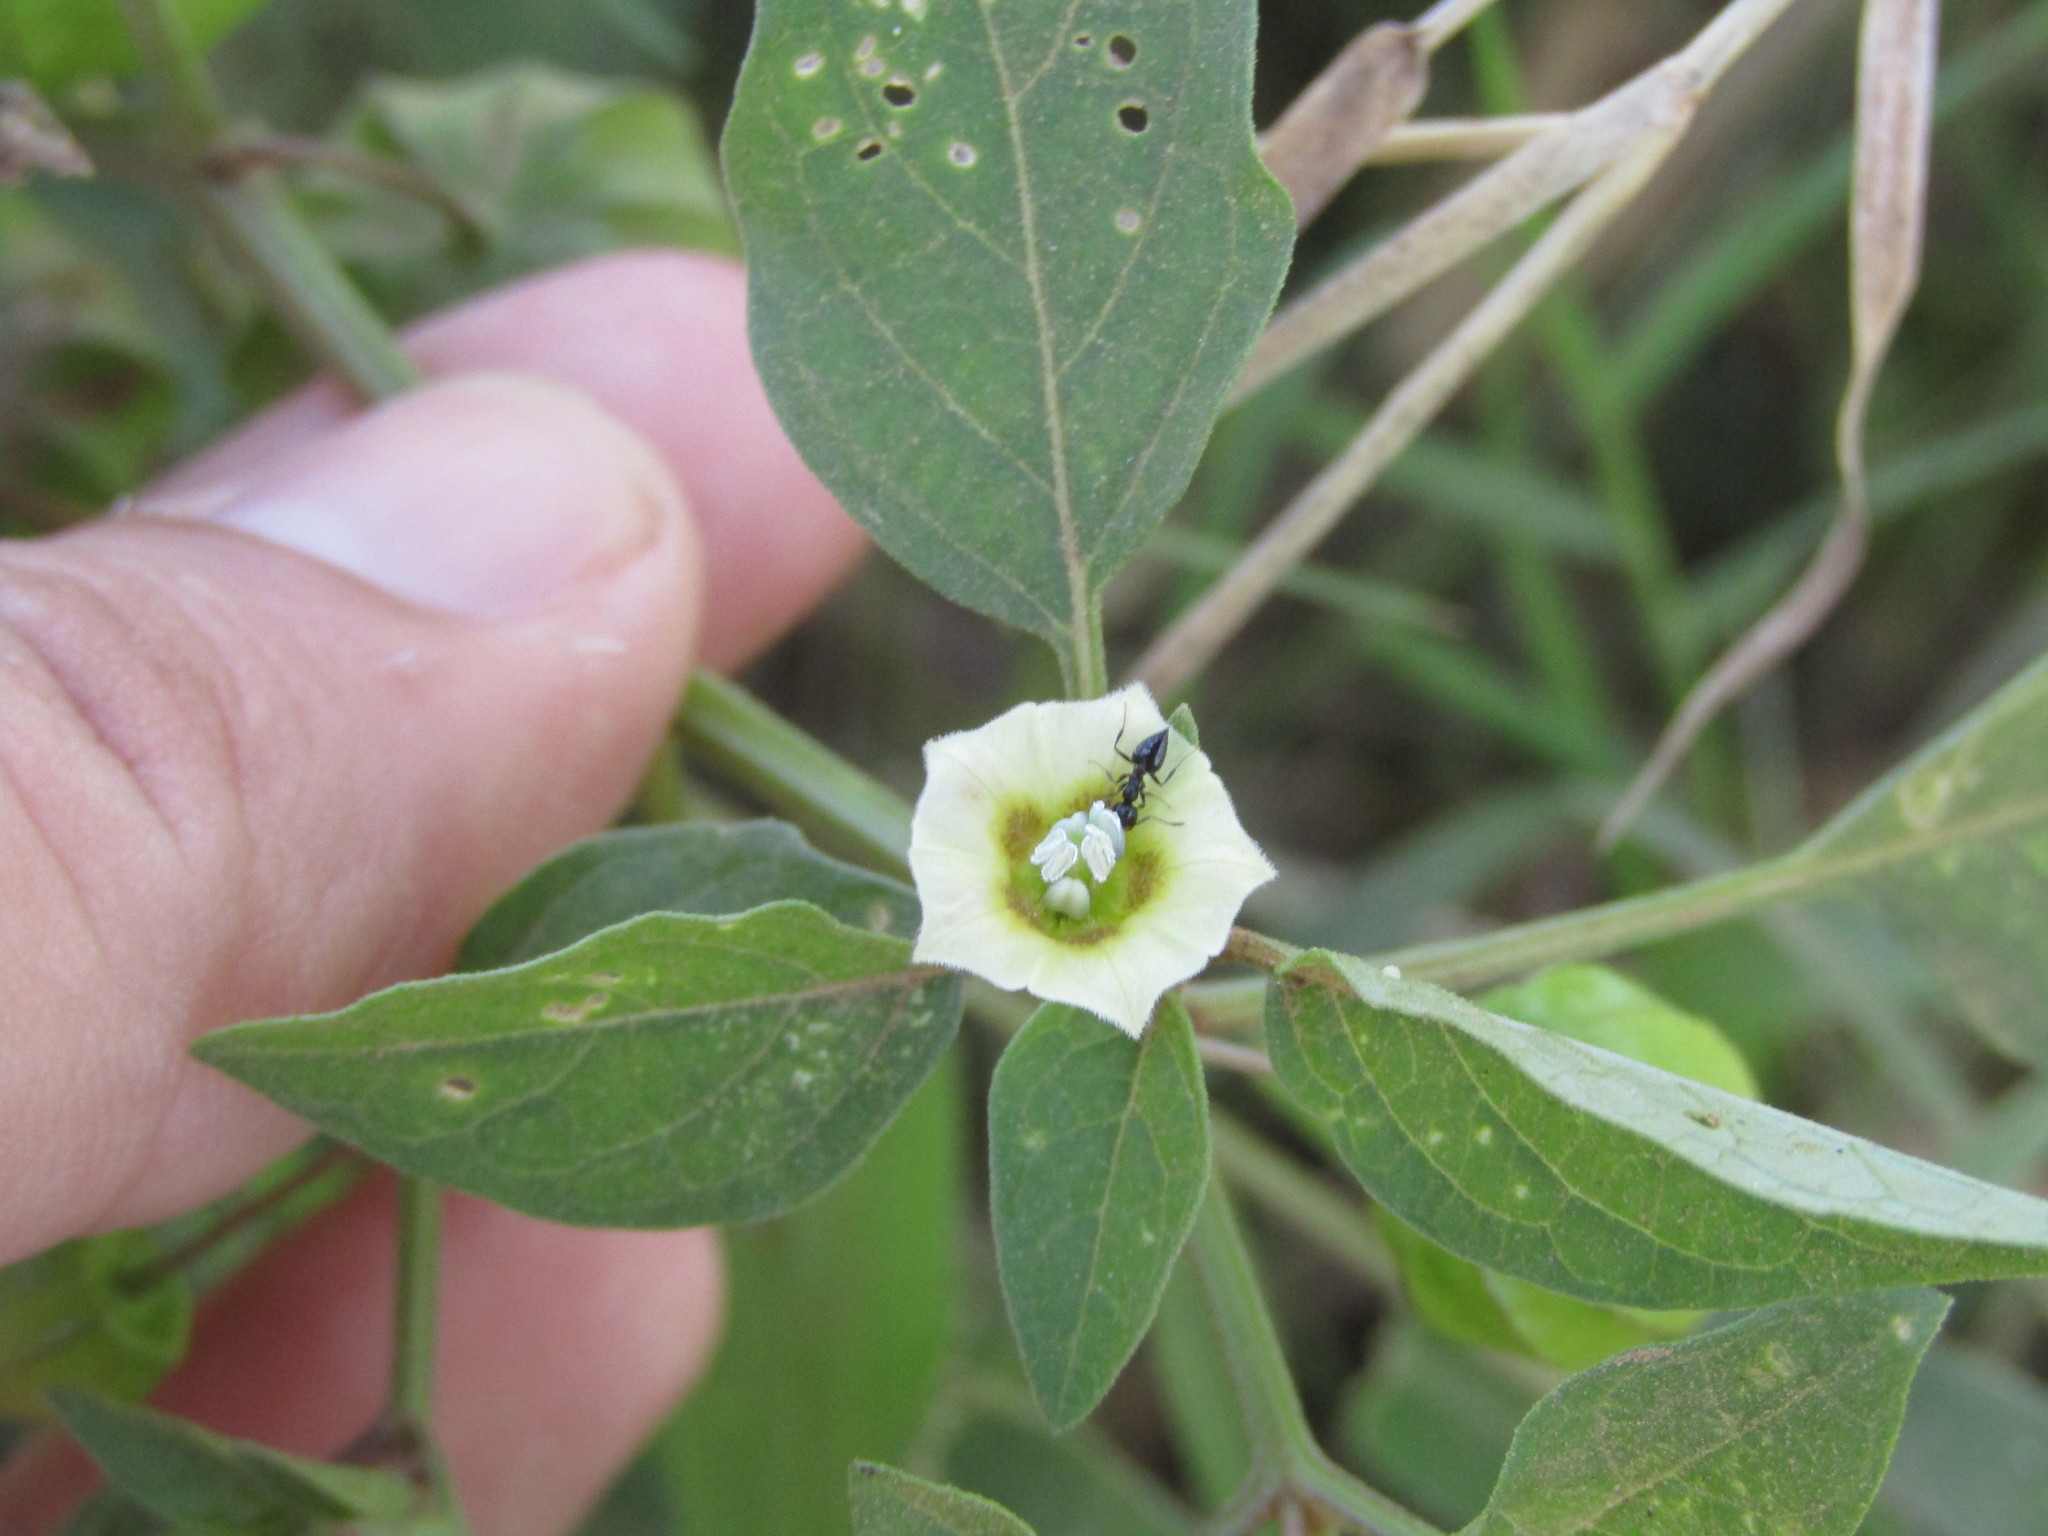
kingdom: Plantae
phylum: Tracheophyta
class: Magnoliopsida
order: Solanales
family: Solanaceae
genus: Physalis
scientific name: Physalis pubescens
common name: Downy ground-cherry
